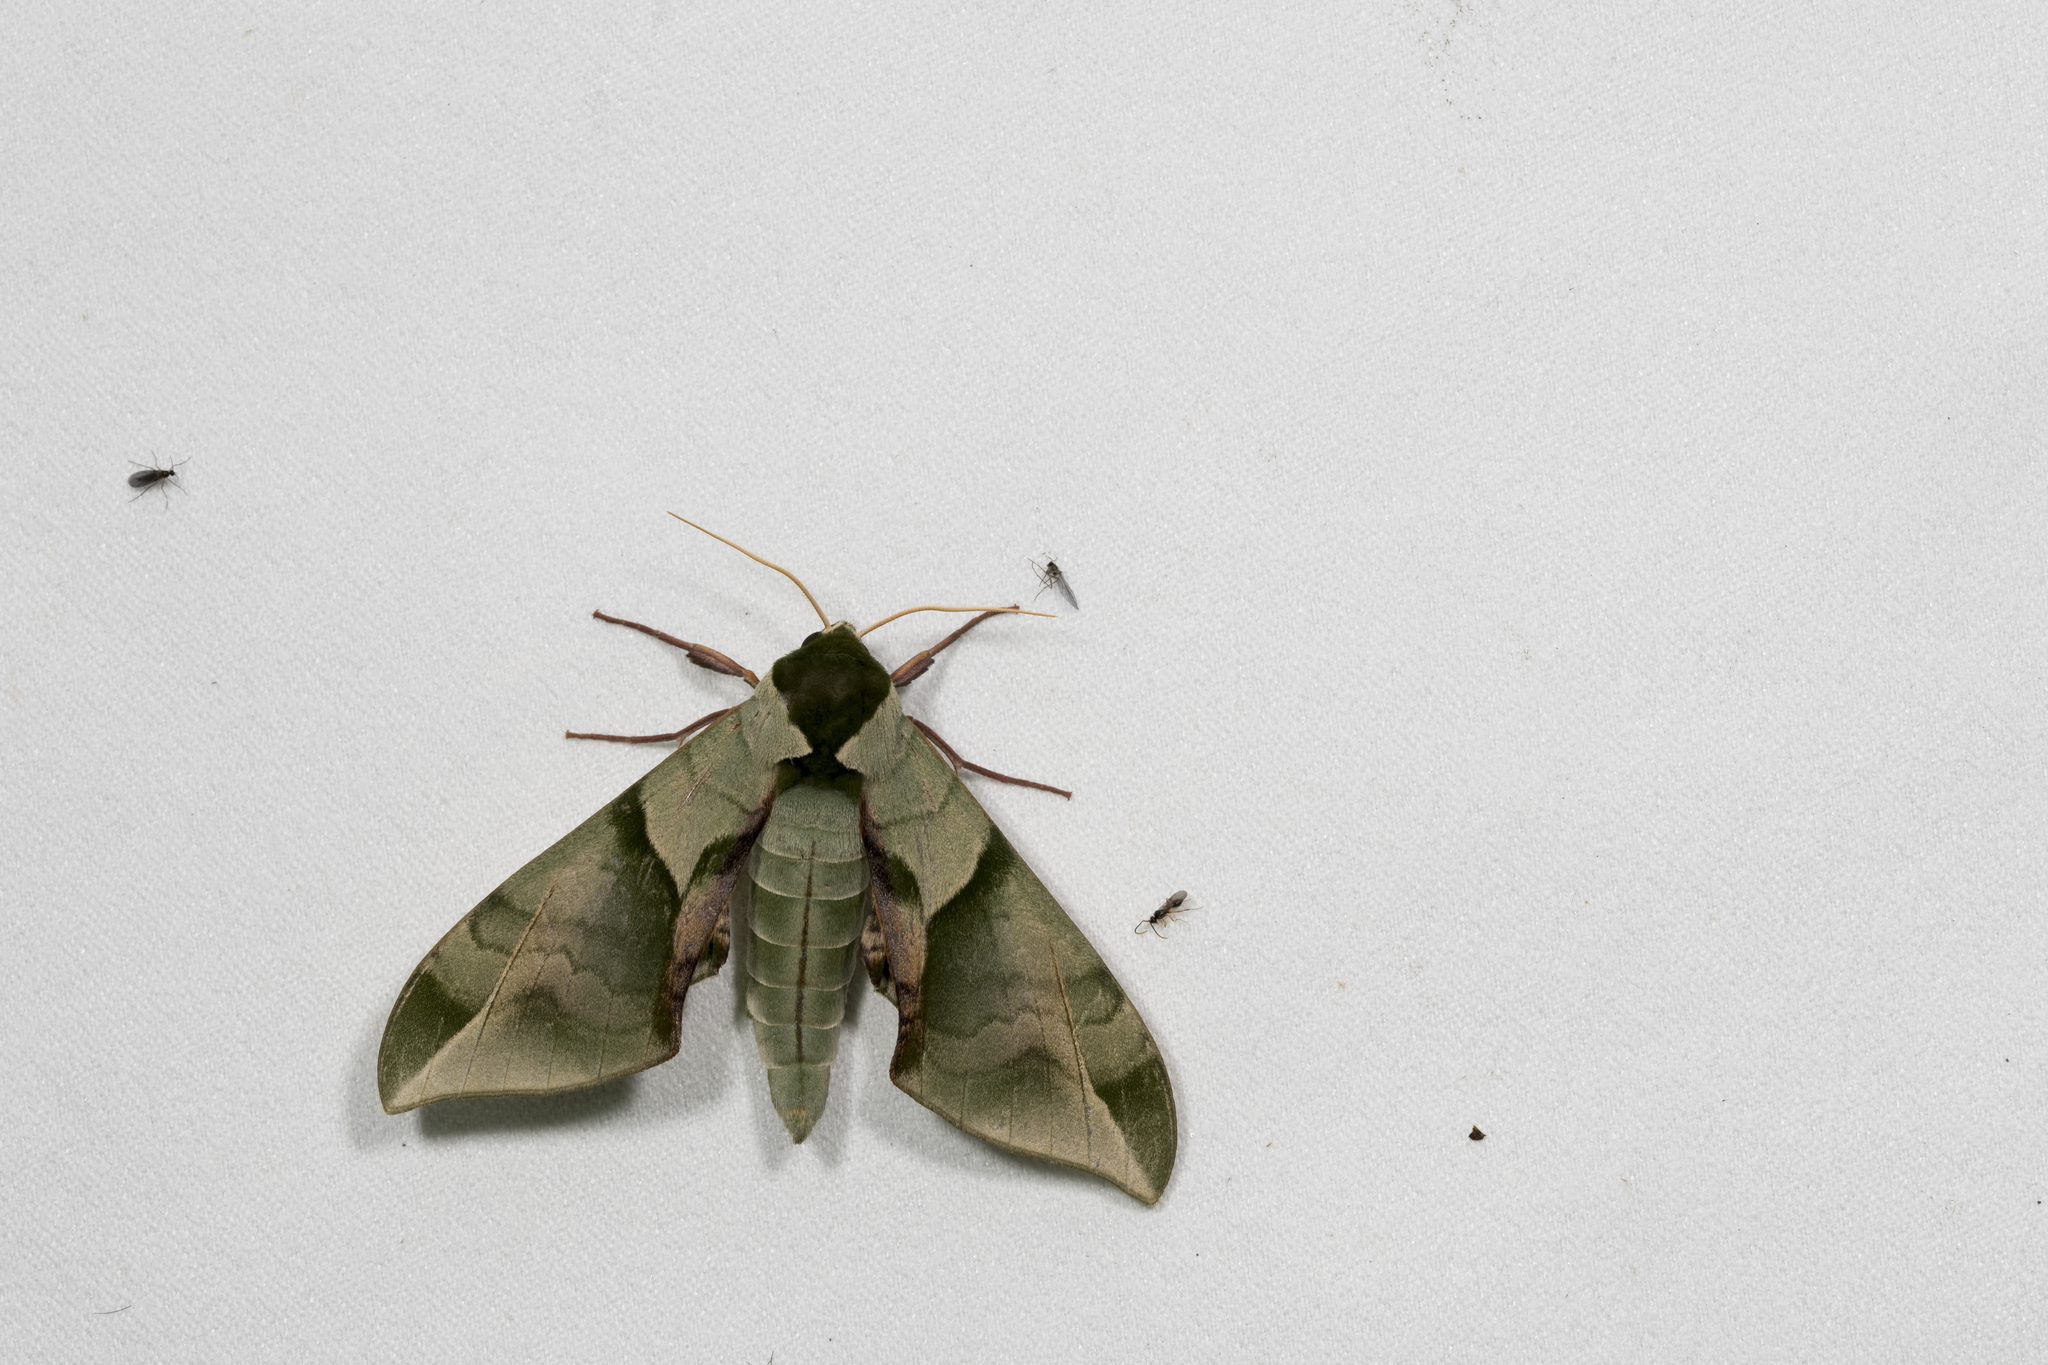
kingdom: Animalia
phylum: Arthropoda
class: Insecta
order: Lepidoptera
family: Sphingidae
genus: Callambulyx
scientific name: Callambulyx tatarinovii
